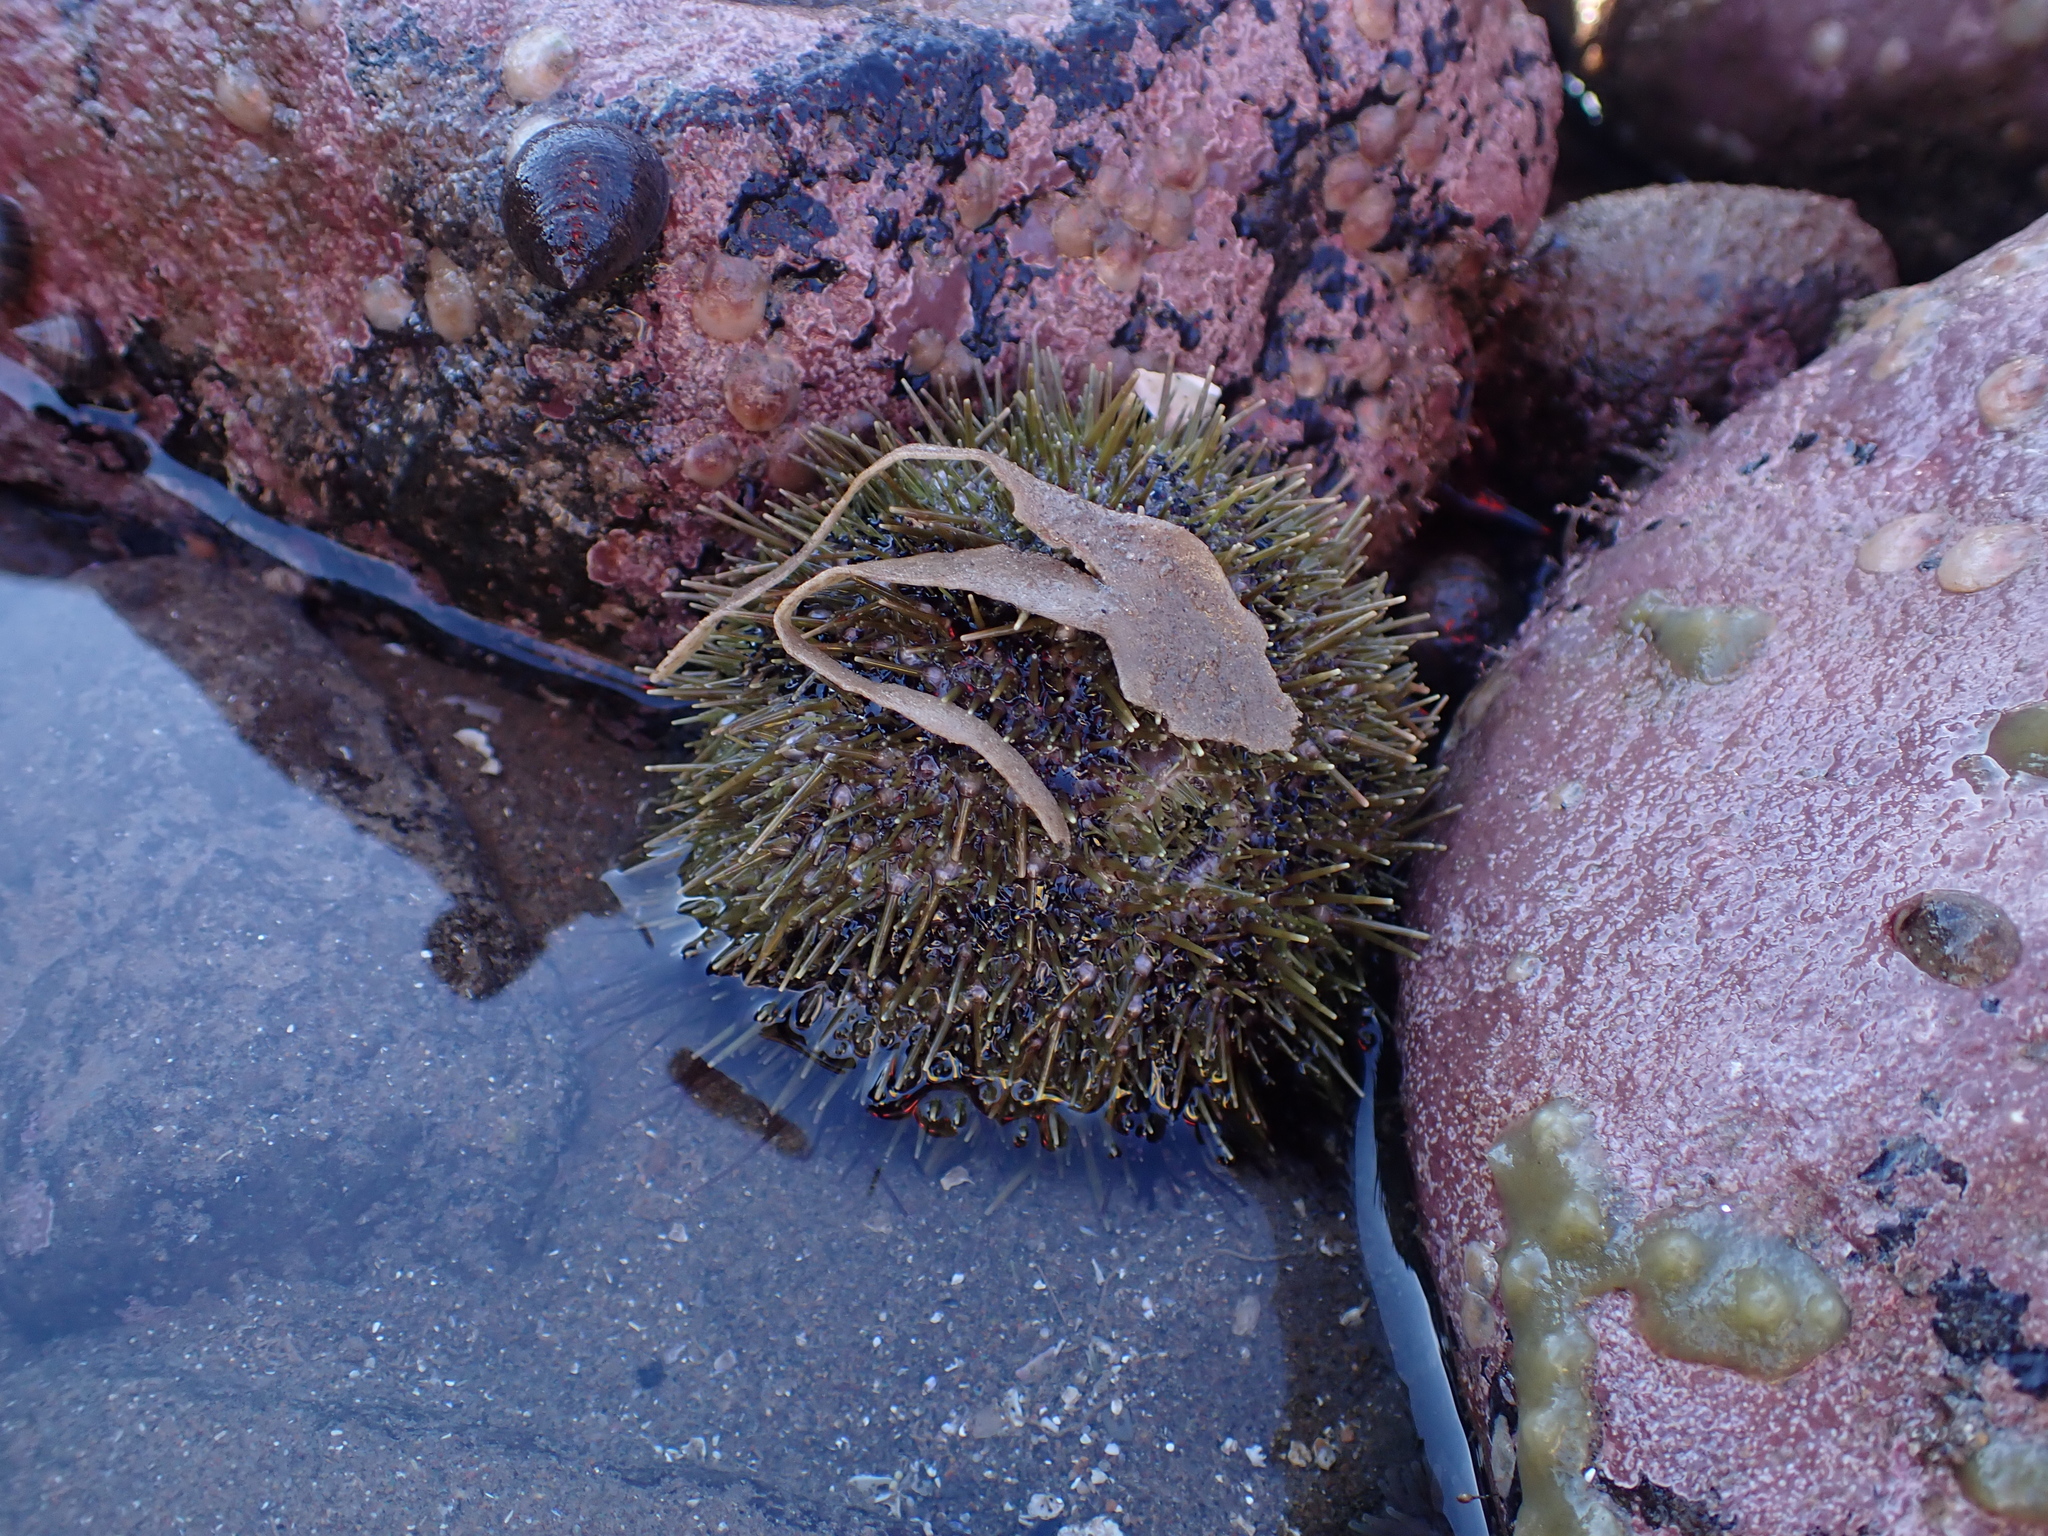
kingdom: Animalia
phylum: Echinodermata
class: Echinoidea
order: Camarodonta
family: Strongylocentrotidae
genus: Strongylocentrotus
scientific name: Strongylocentrotus droebachiensis
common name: Northern sea urchin
